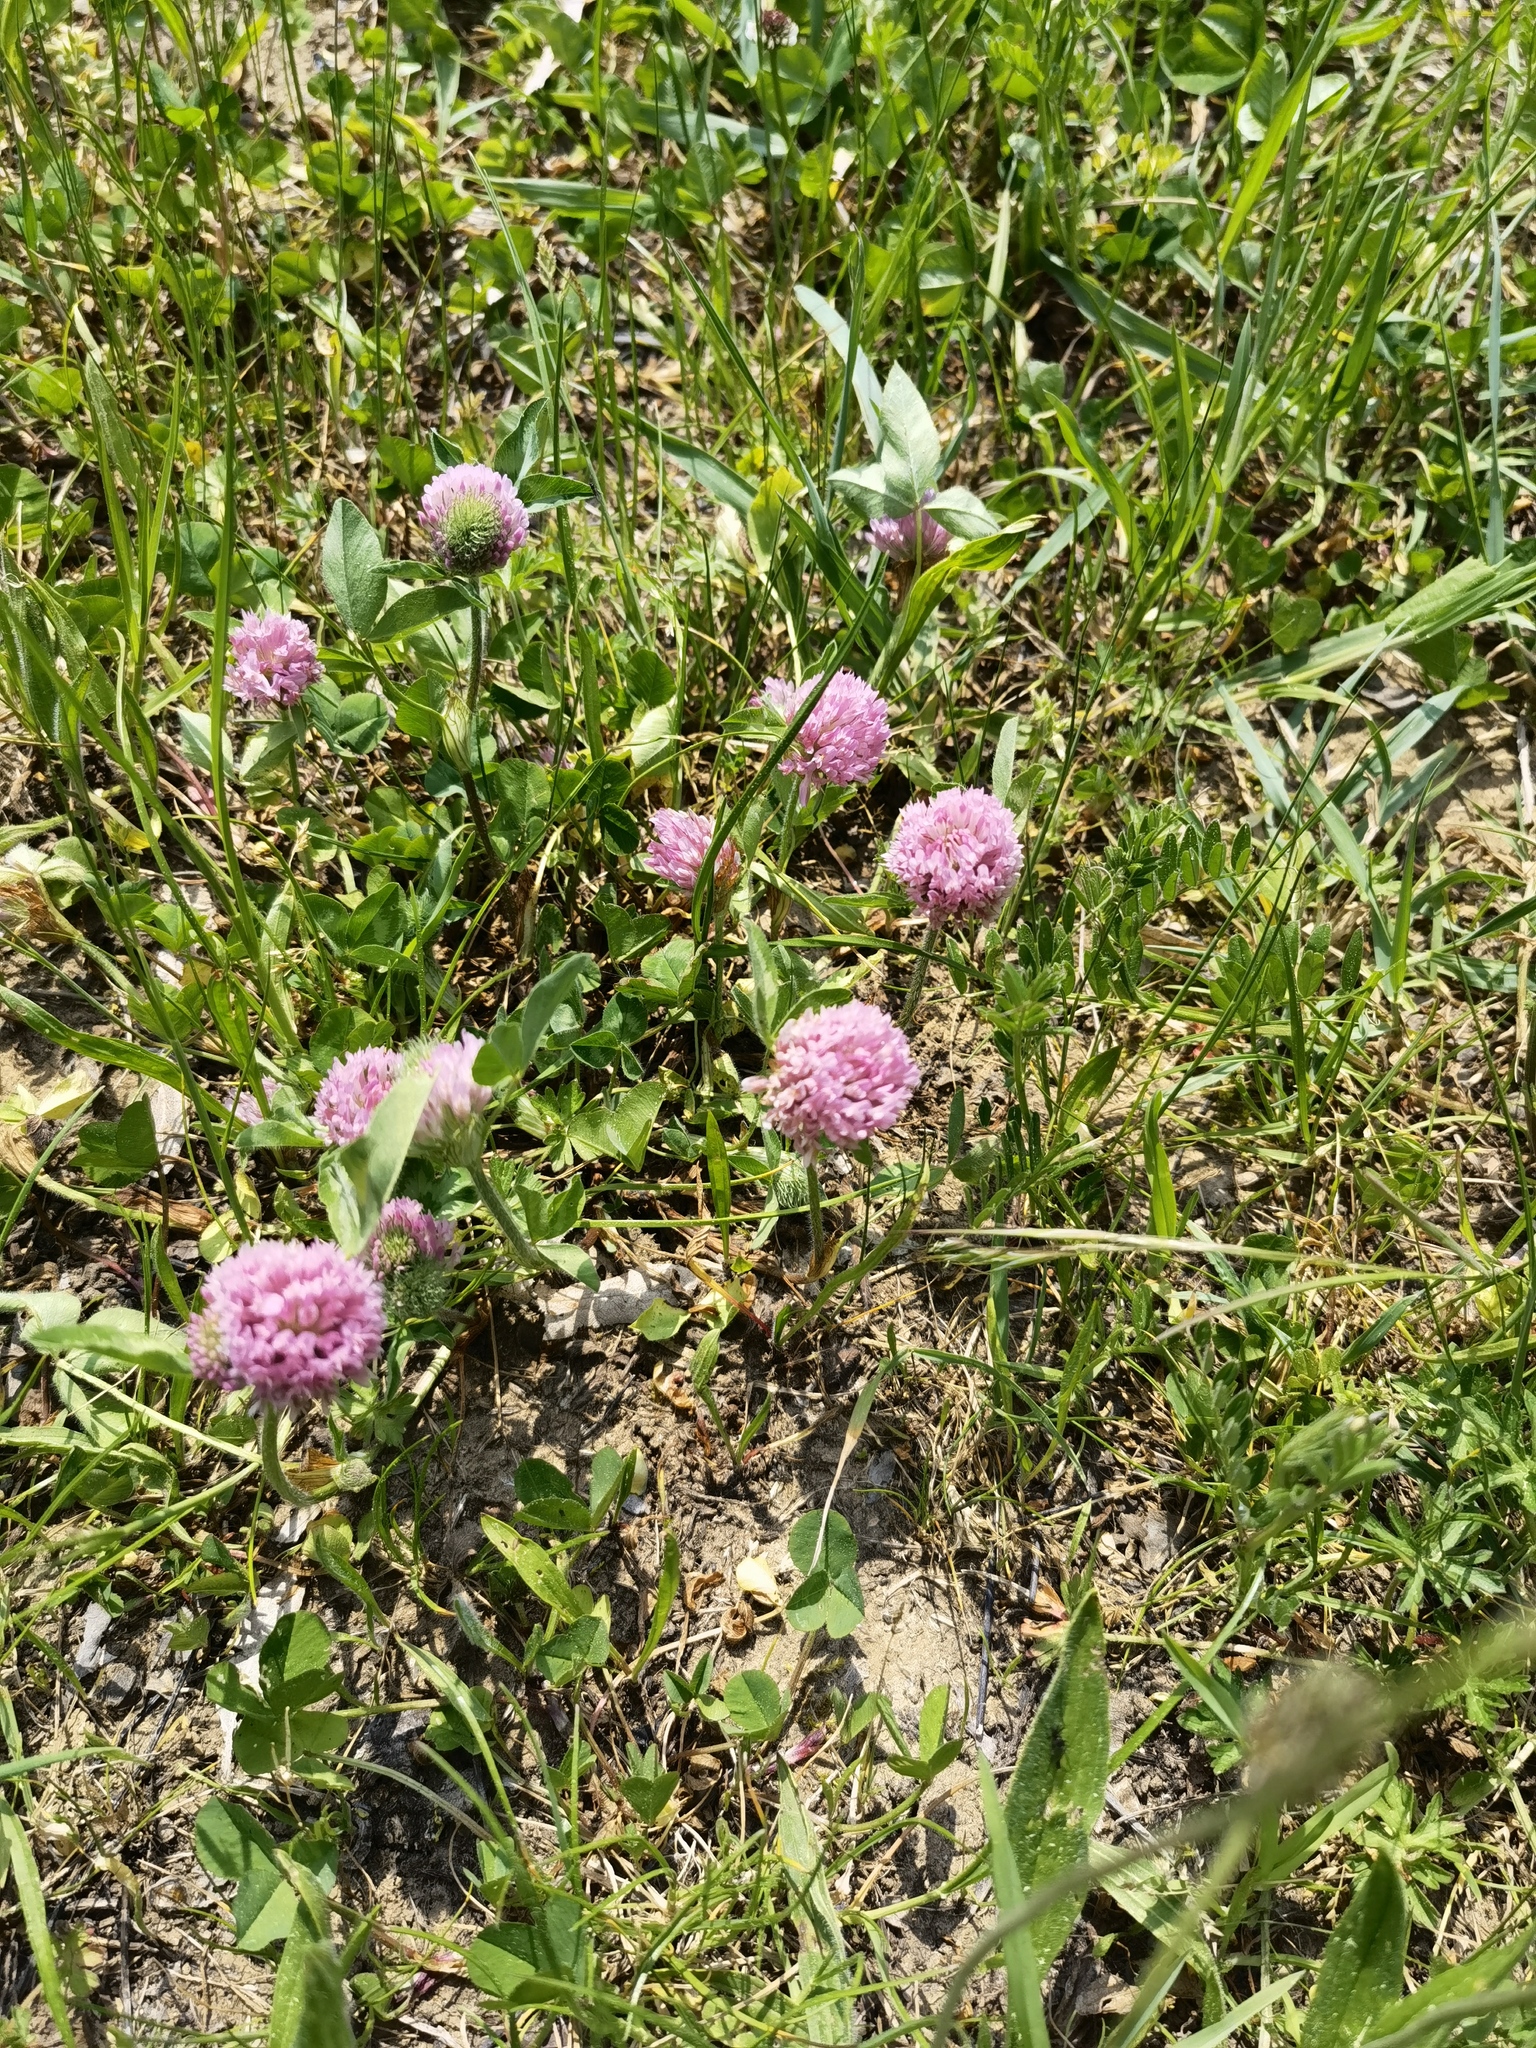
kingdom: Plantae
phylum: Tracheophyta
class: Magnoliopsida
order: Fabales
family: Fabaceae
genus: Trifolium
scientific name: Trifolium pratense
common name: Red clover
